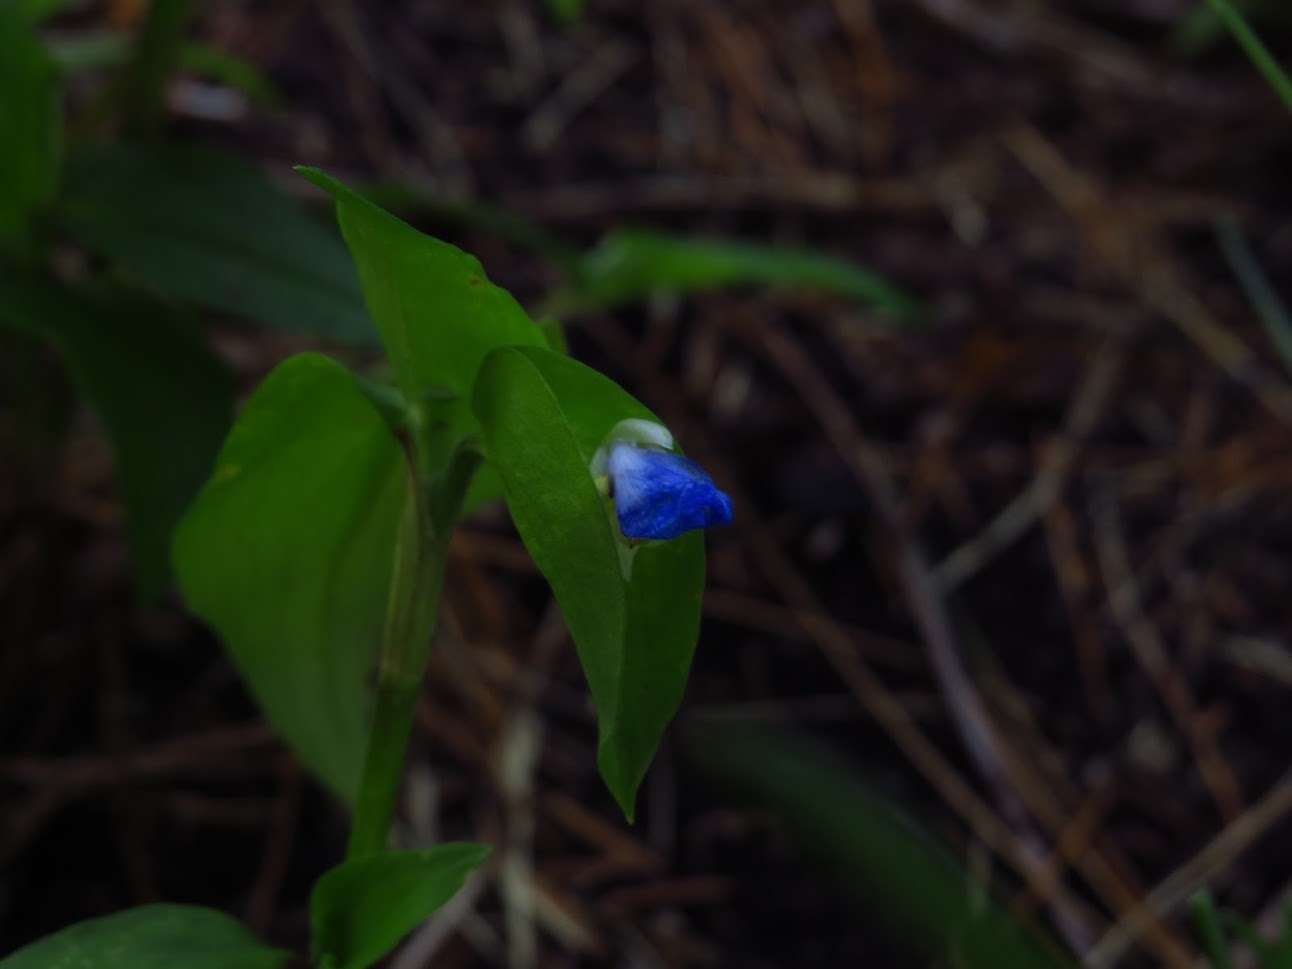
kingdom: Plantae
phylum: Tracheophyta
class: Liliopsida
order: Commelinales
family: Commelinaceae
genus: Commelina
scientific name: Commelina communis
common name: Asiatic dayflower
